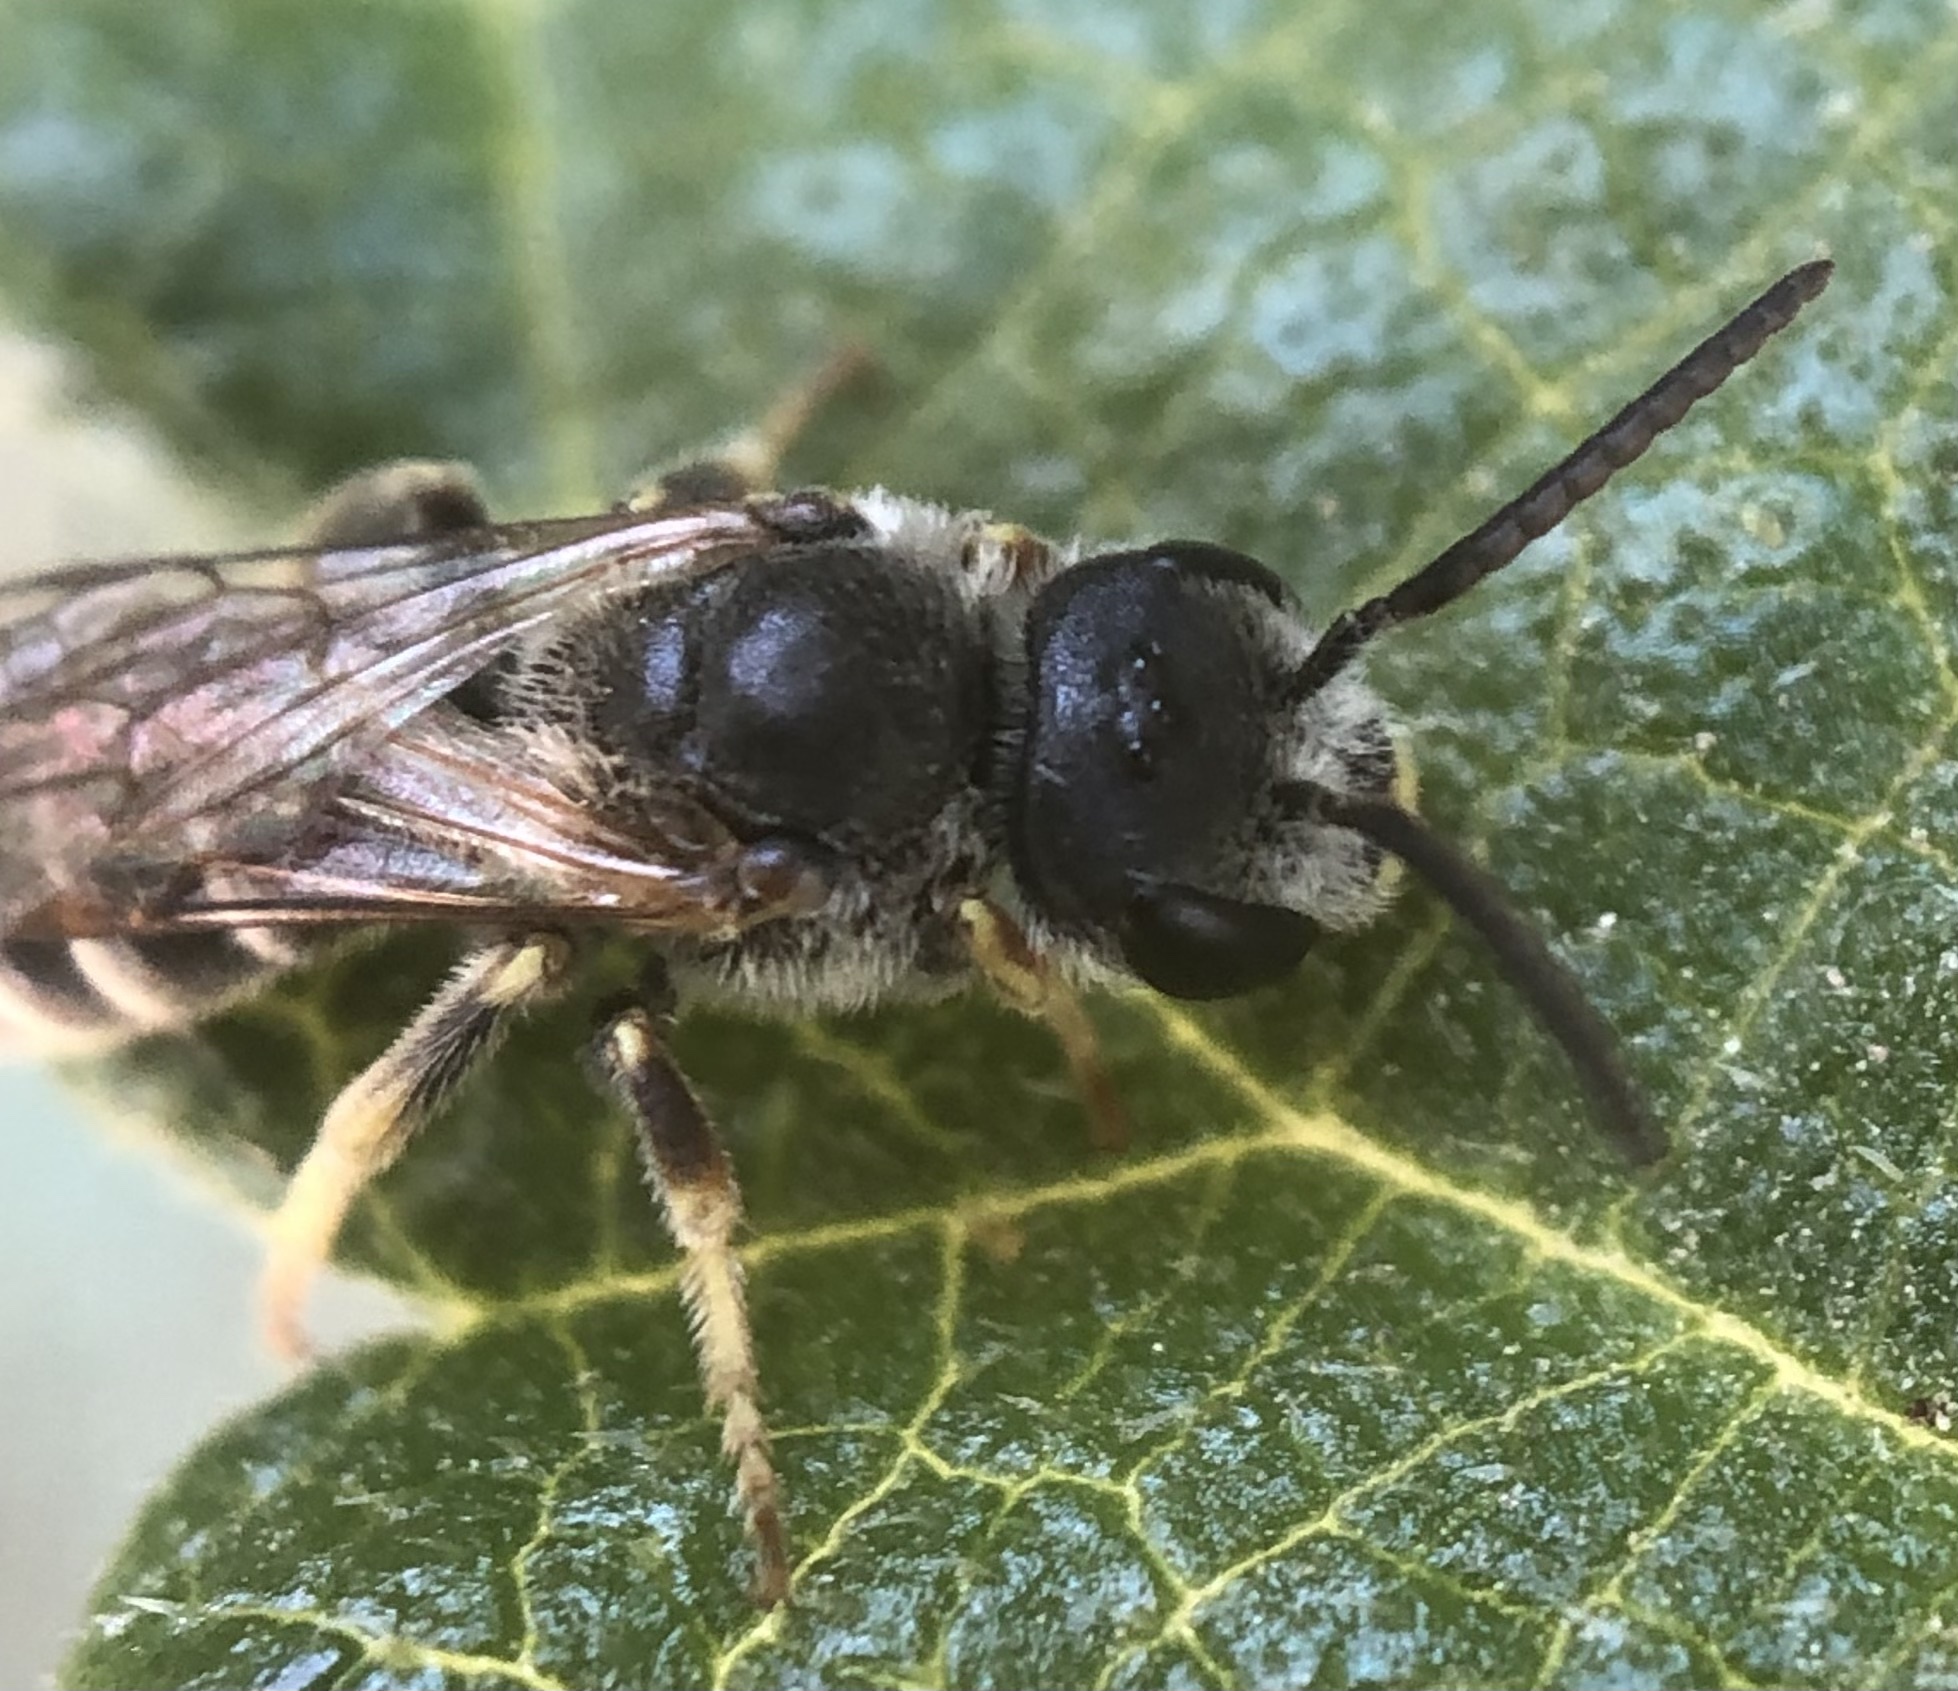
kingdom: Animalia
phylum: Arthropoda
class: Insecta
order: Hymenoptera
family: Halictidae
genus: Halictus
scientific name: Halictus ligatus
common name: Ligated furrow bee
